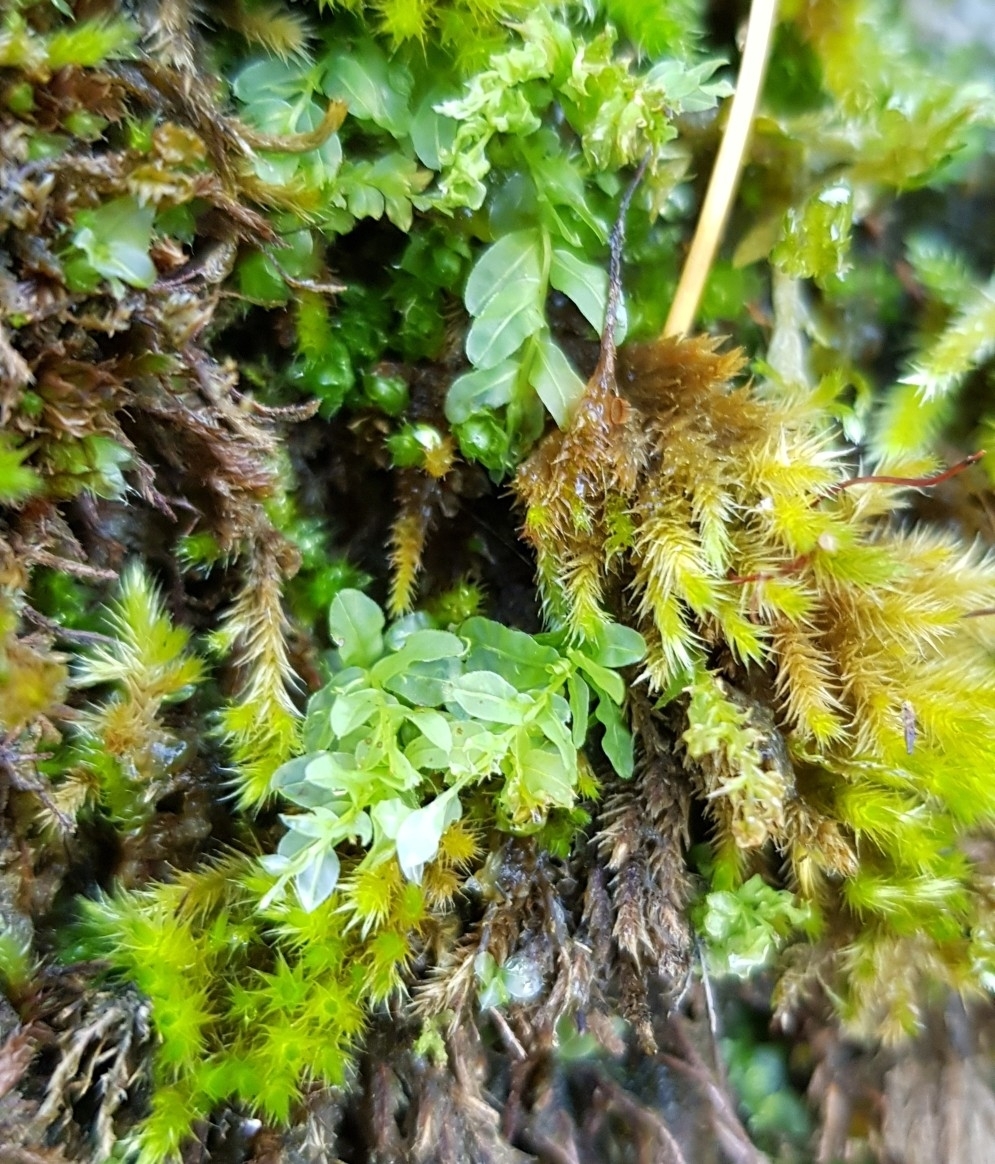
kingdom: Plantae
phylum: Bryophyta
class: Bryopsida
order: Bryales
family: Mniaceae
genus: Plagiomnium
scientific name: Plagiomnium undulatum
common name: Hart's-tongue thyme-moss
